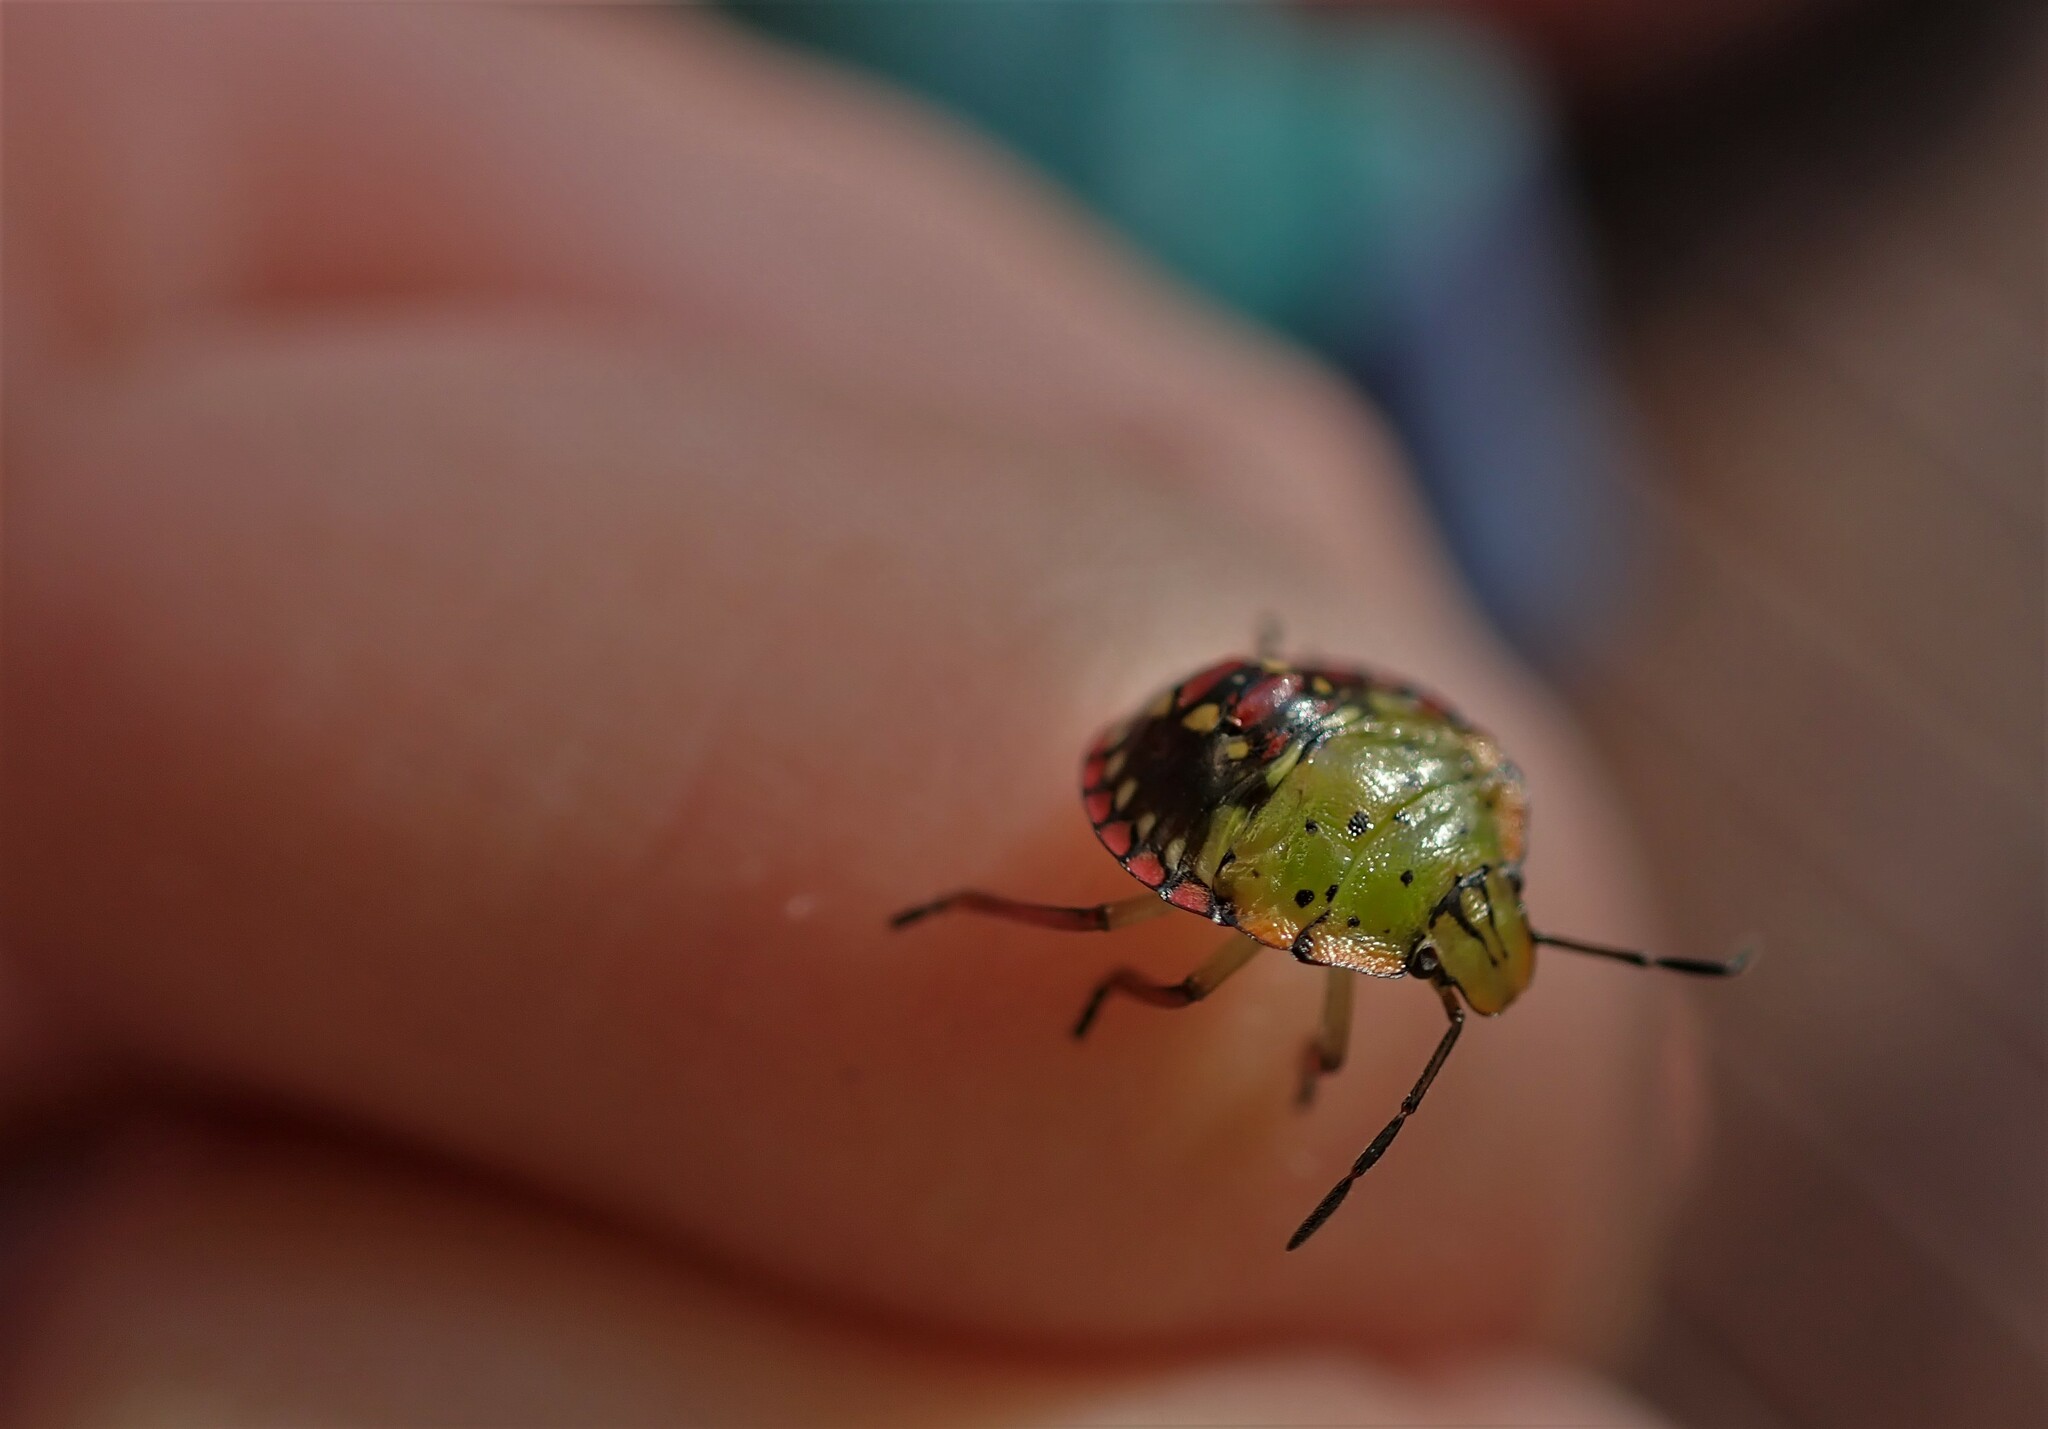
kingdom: Animalia
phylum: Arthropoda
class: Insecta
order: Hemiptera
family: Pentatomidae
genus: Nezara
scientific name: Nezara viridula
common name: Southern green stink bug
